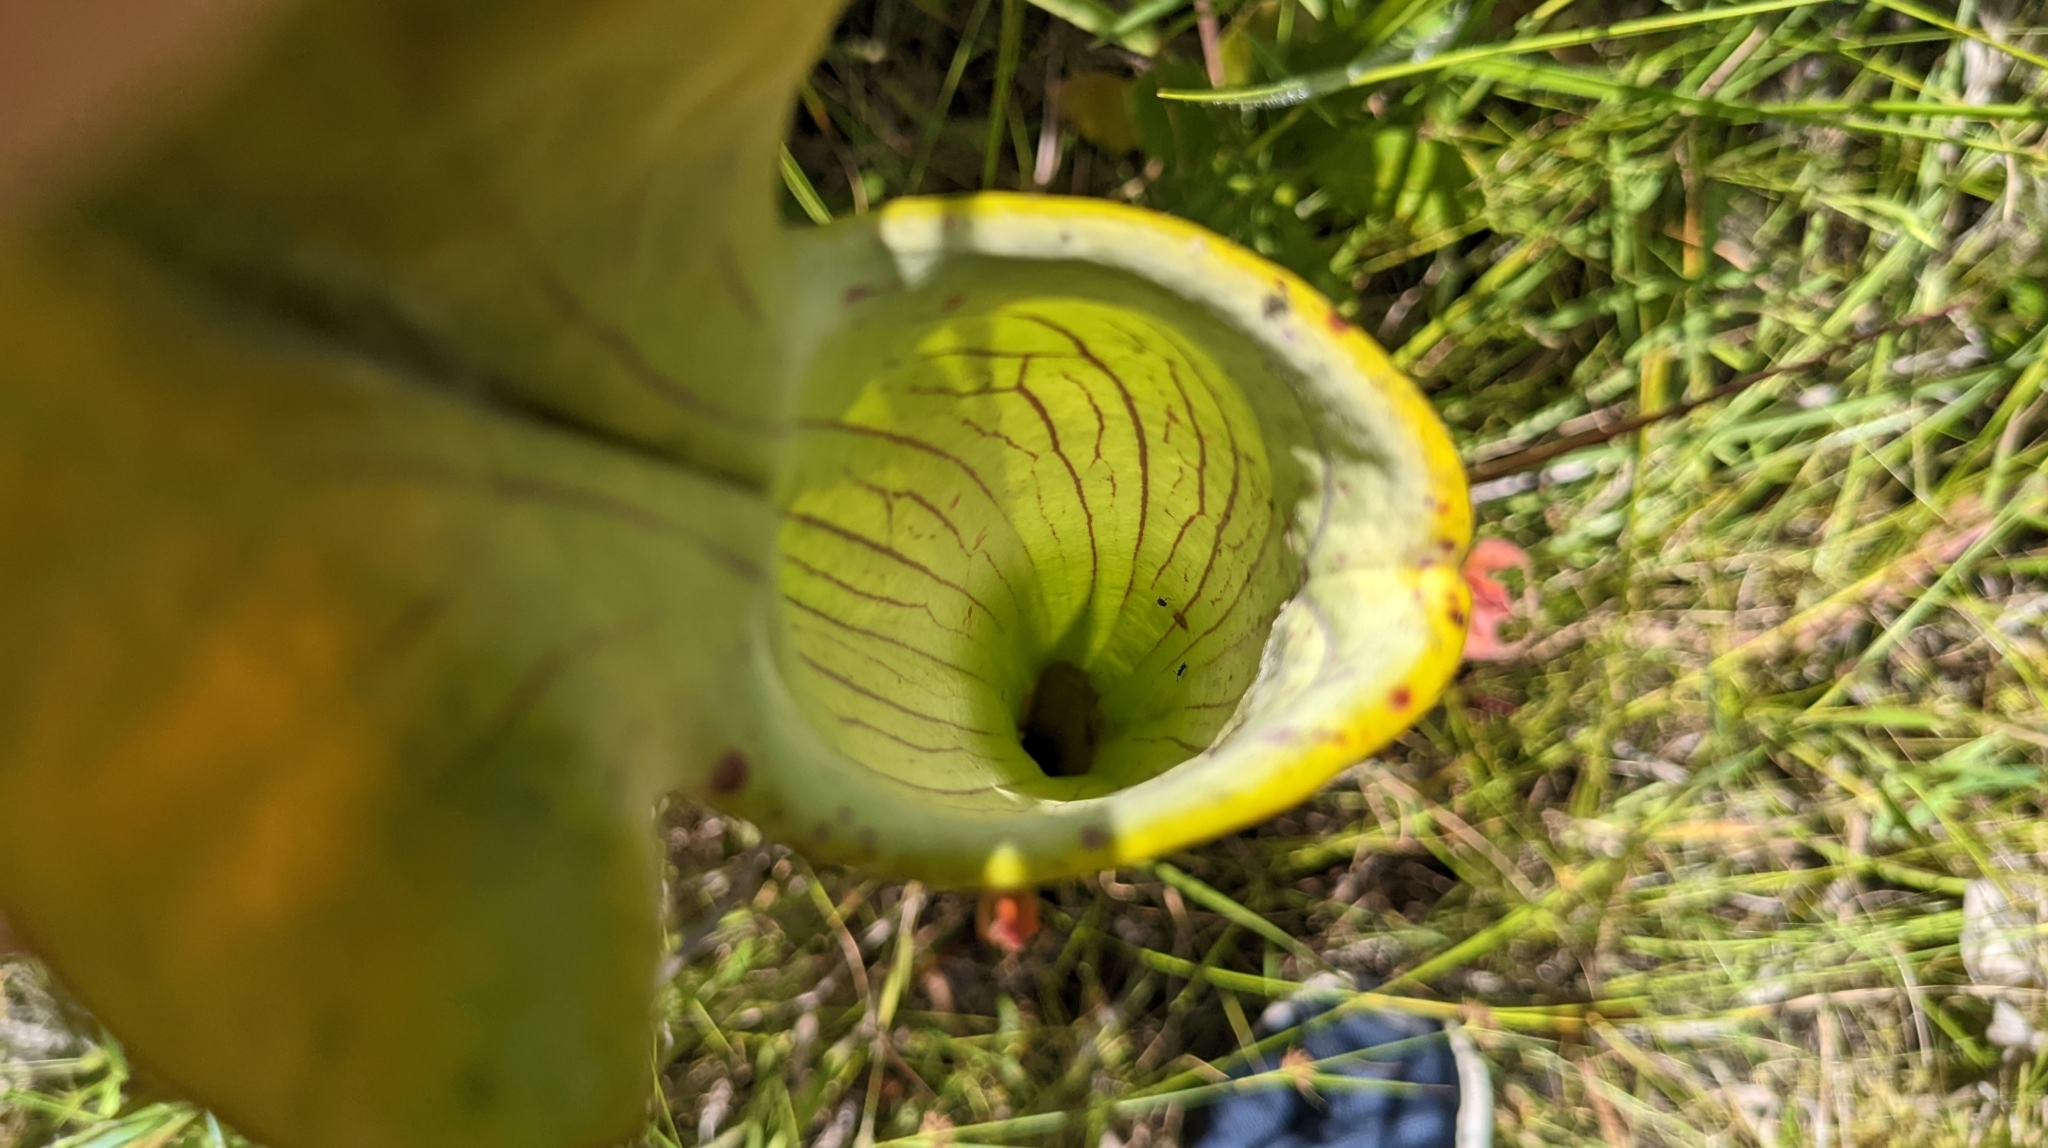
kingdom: Plantae
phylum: Tracheophyta
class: Magnoliopsida
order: Ericales
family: Sarraceniaceae
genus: Sarracenia
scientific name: Sarracenia alata
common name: Yellow trumpets
